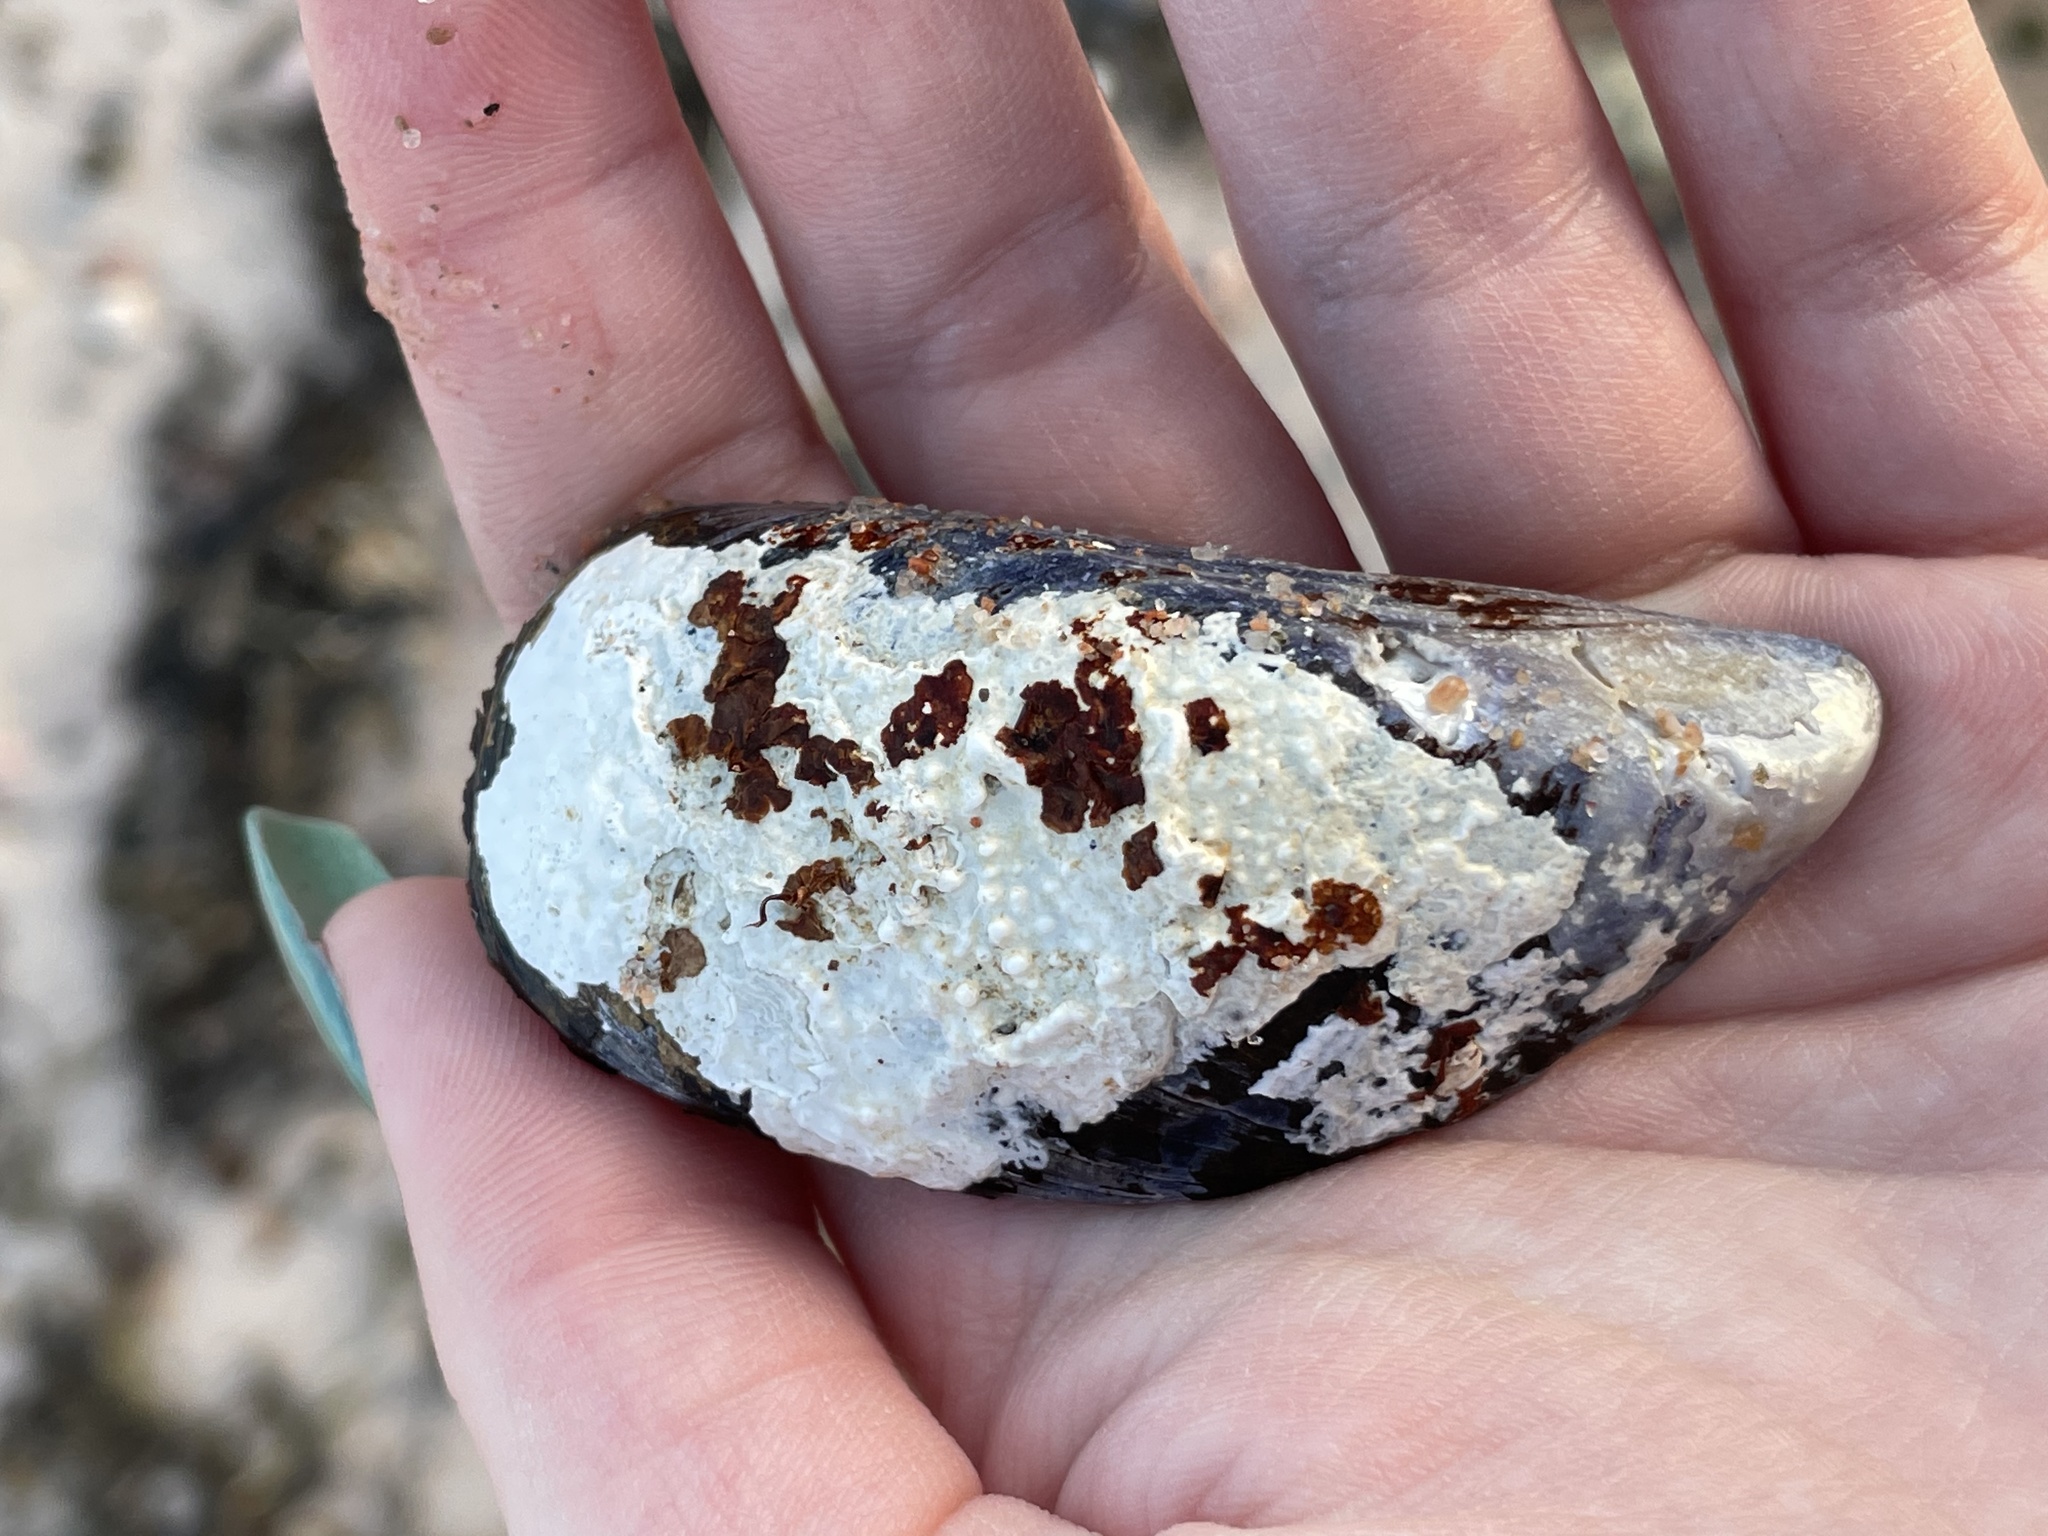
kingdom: Animalia
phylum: Mollusca
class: Bivalvia
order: Mytilida
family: Mytilidae
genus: Mytilus
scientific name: Mytilus edulis
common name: Blue mussel
